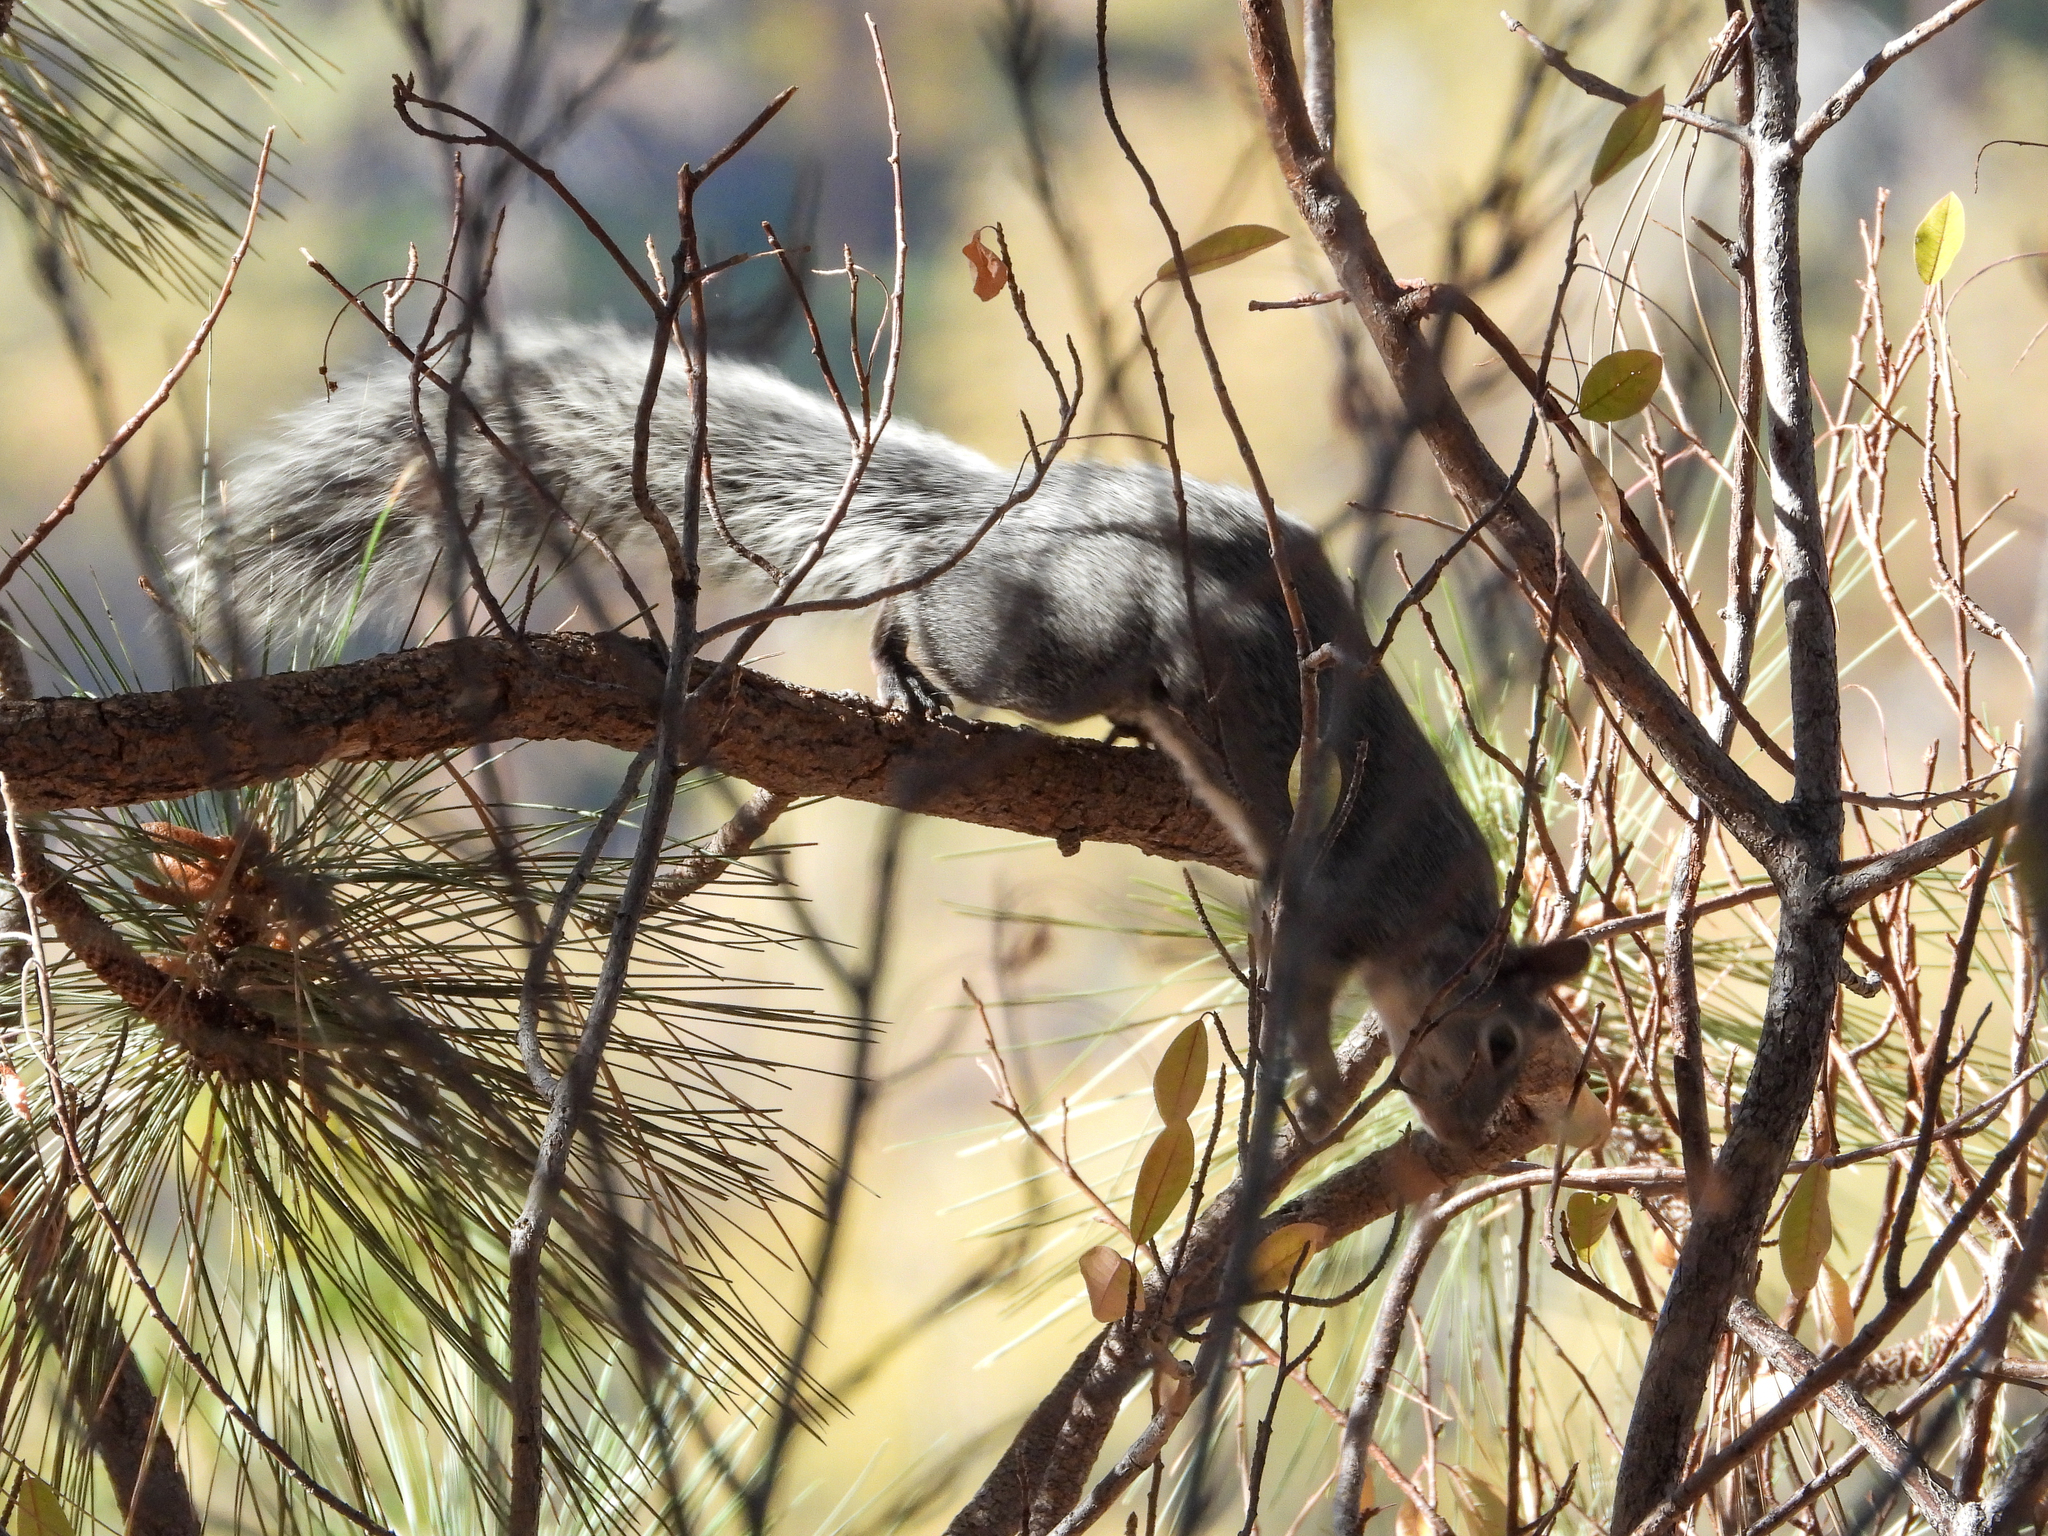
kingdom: Animalia
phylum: Chordata
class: Mammalia
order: Rodentia
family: Sciuridae
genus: Sciurus
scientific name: Sciurus griseus
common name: Western gray squirrel
